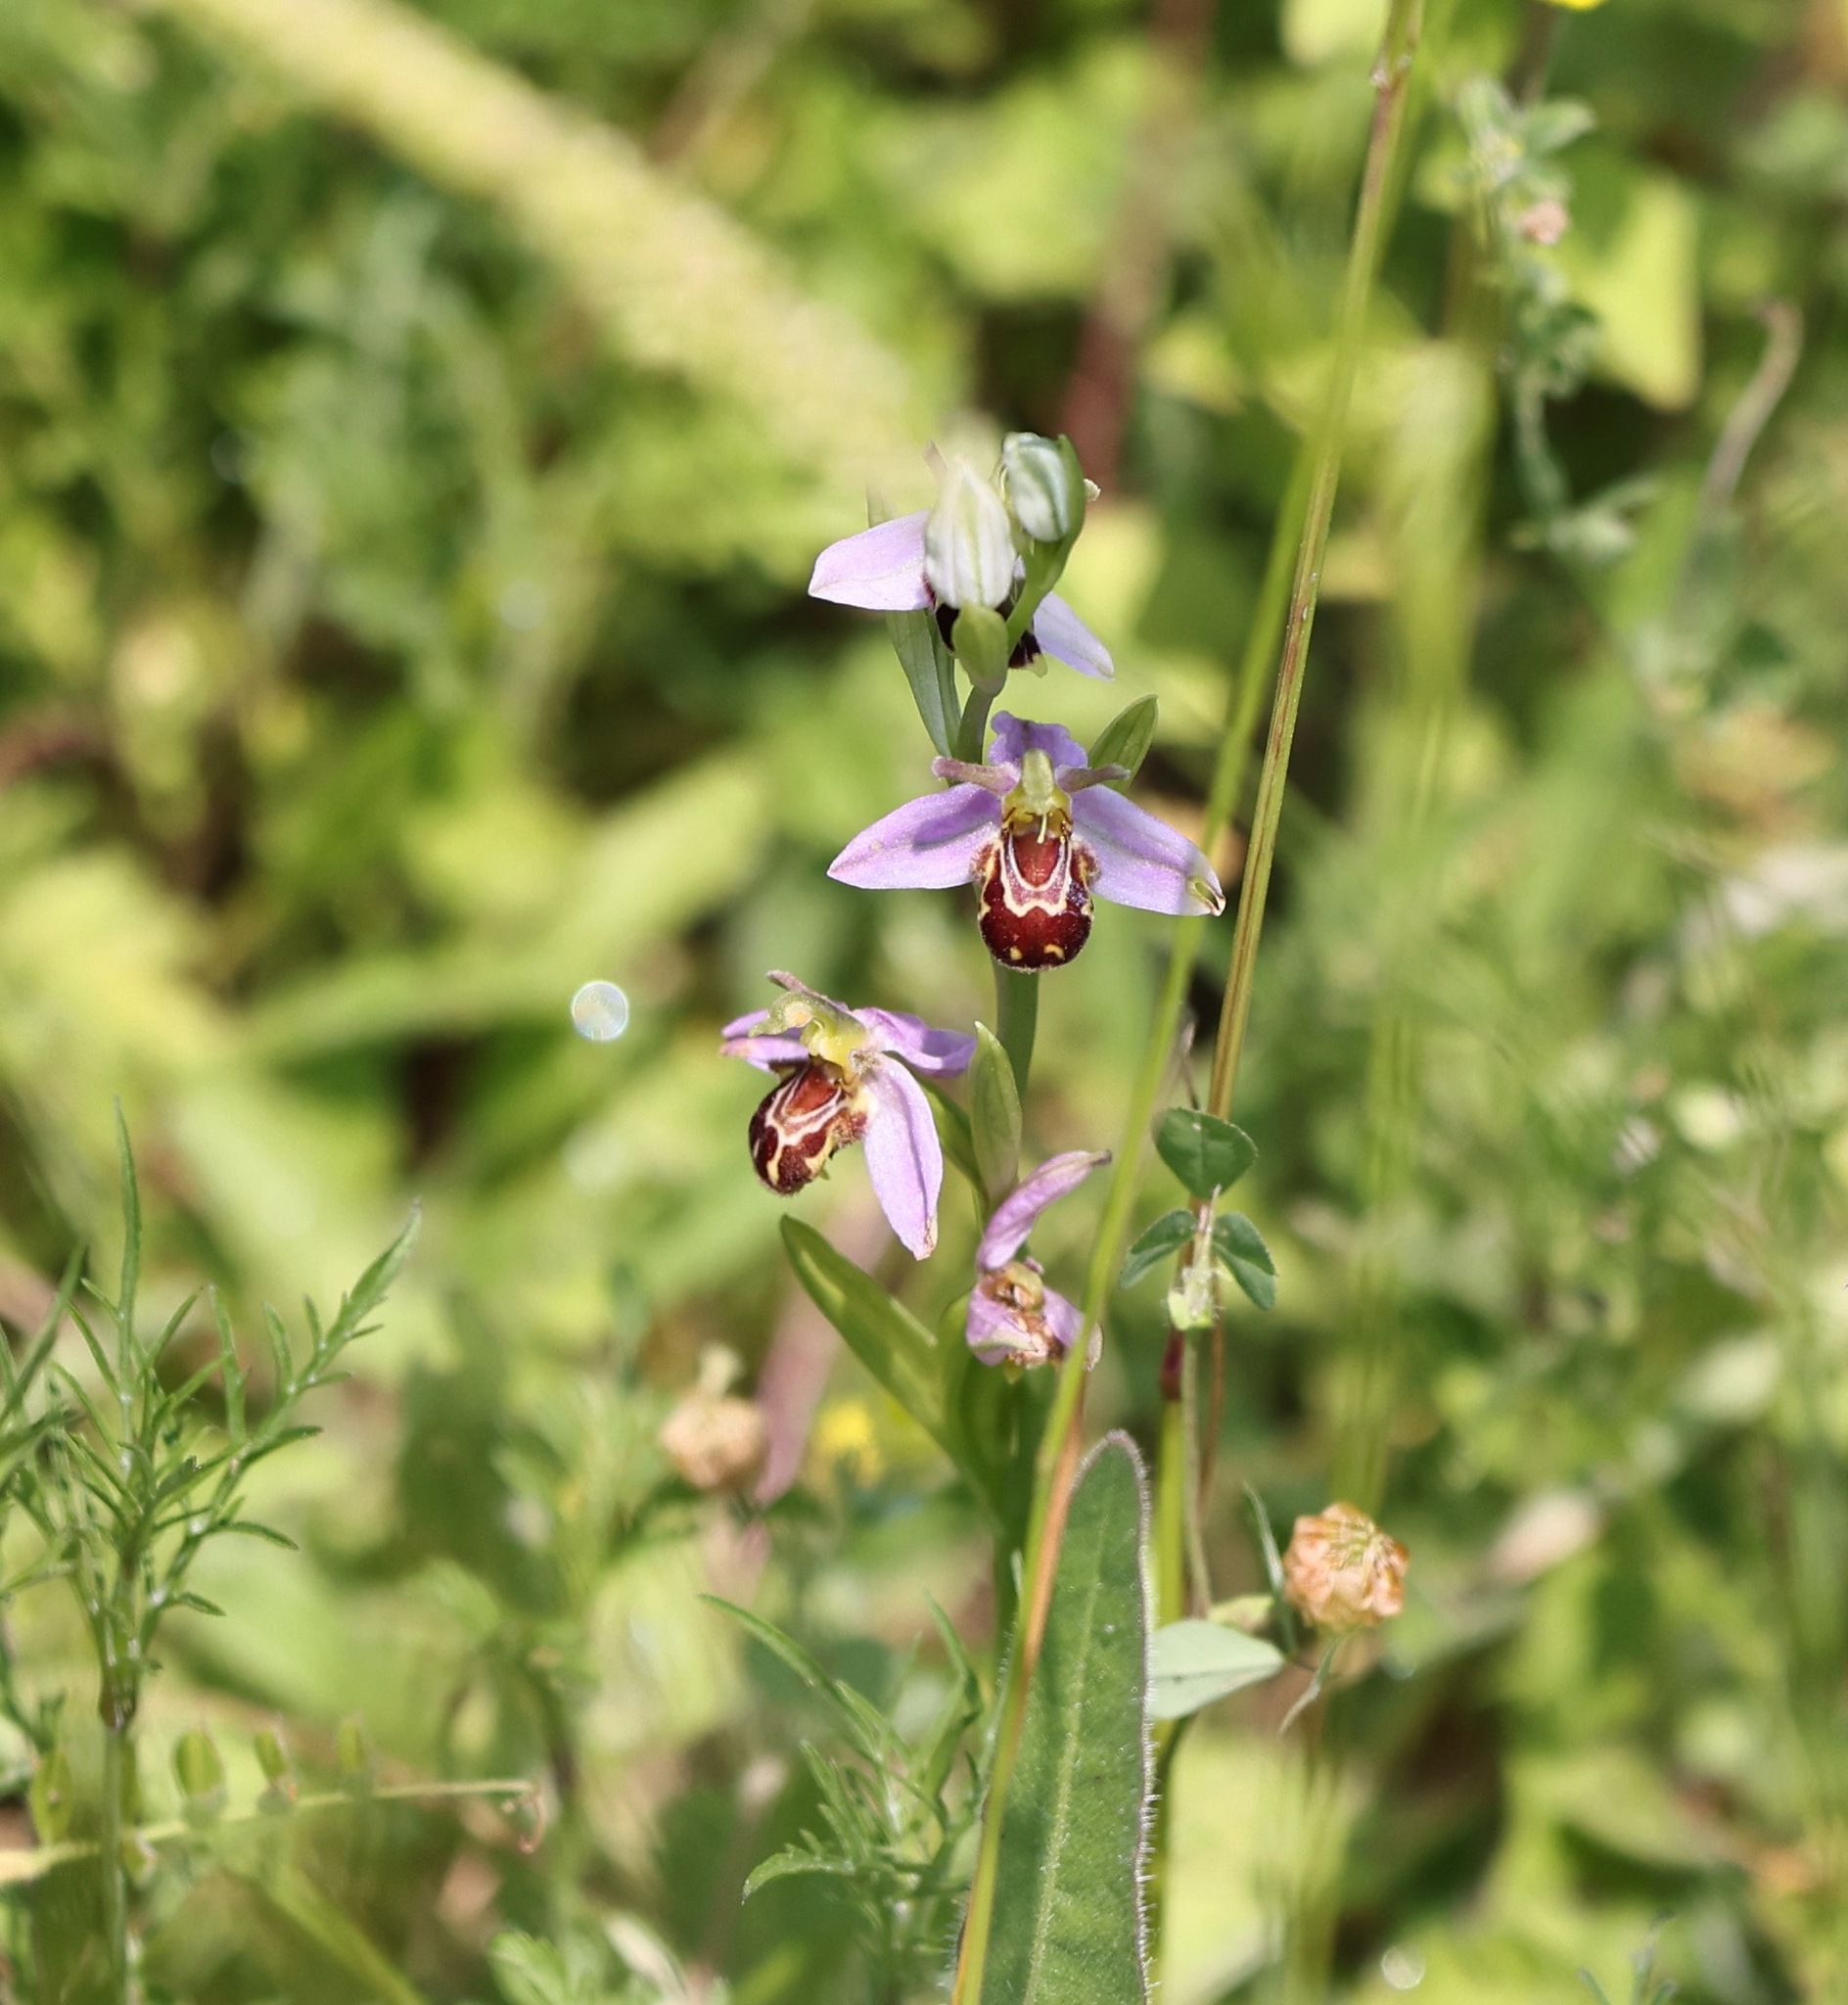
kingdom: Plantae
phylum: Tracheophyta
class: Liliopsida
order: Asparagales
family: Orchidaceae
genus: Ophrys
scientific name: Ophrys apifera
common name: Bee orchid
